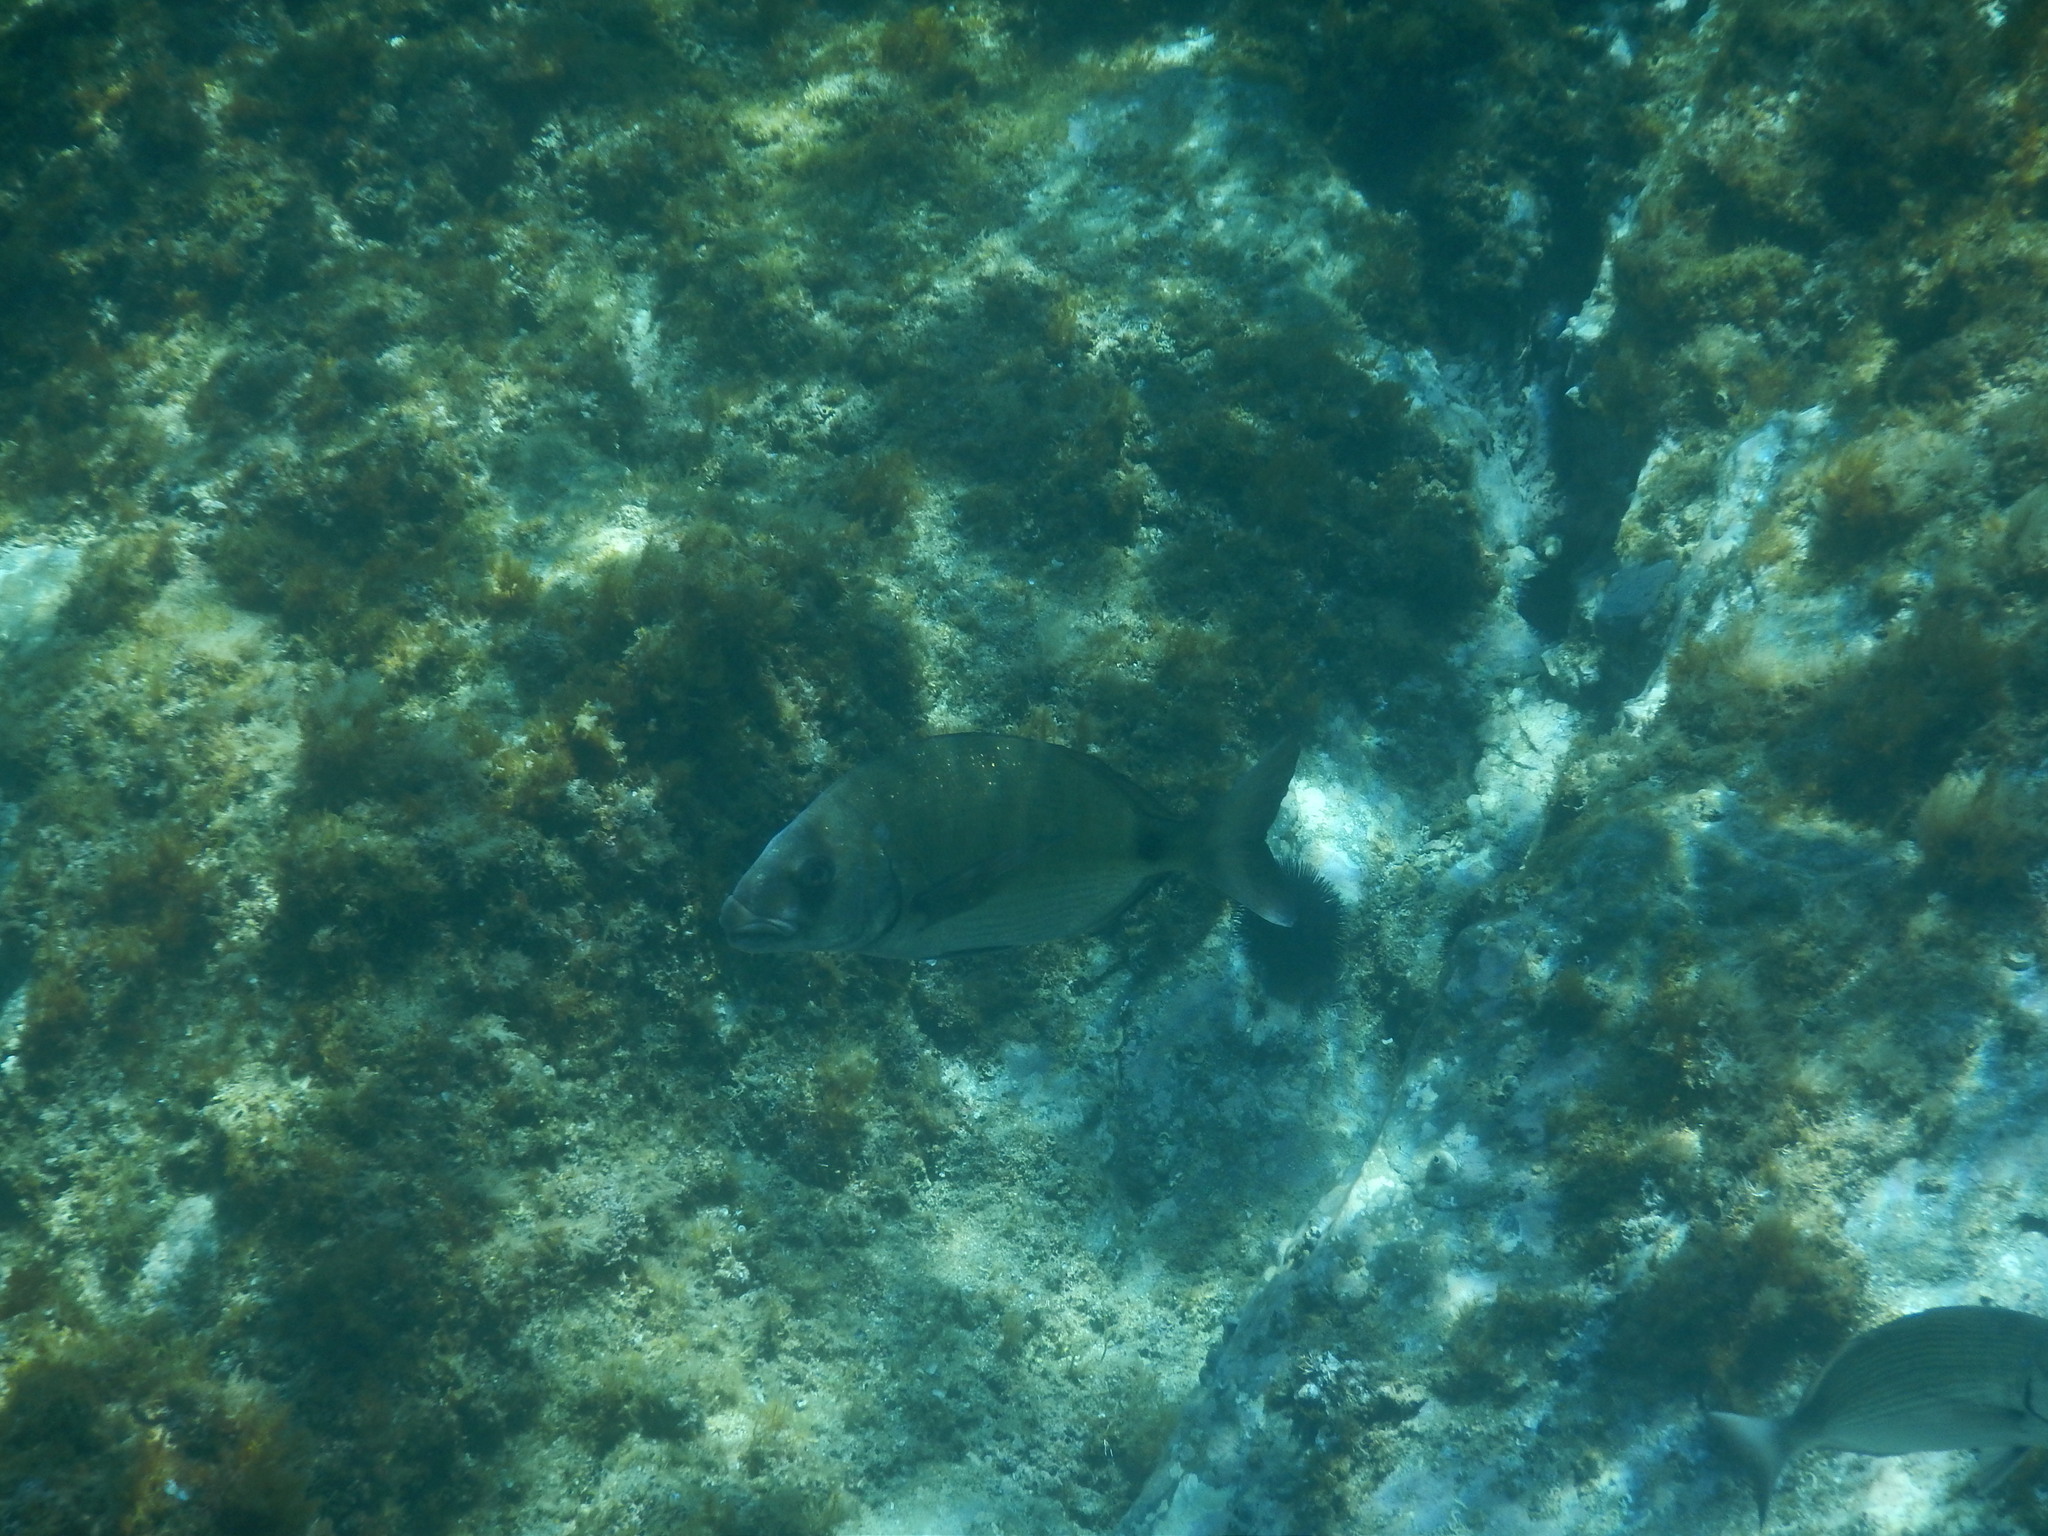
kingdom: Animalia
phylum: Chordata
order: Perciformes
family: Sparidae
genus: Diplodus
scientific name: Diplodus sargus
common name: White seabream
